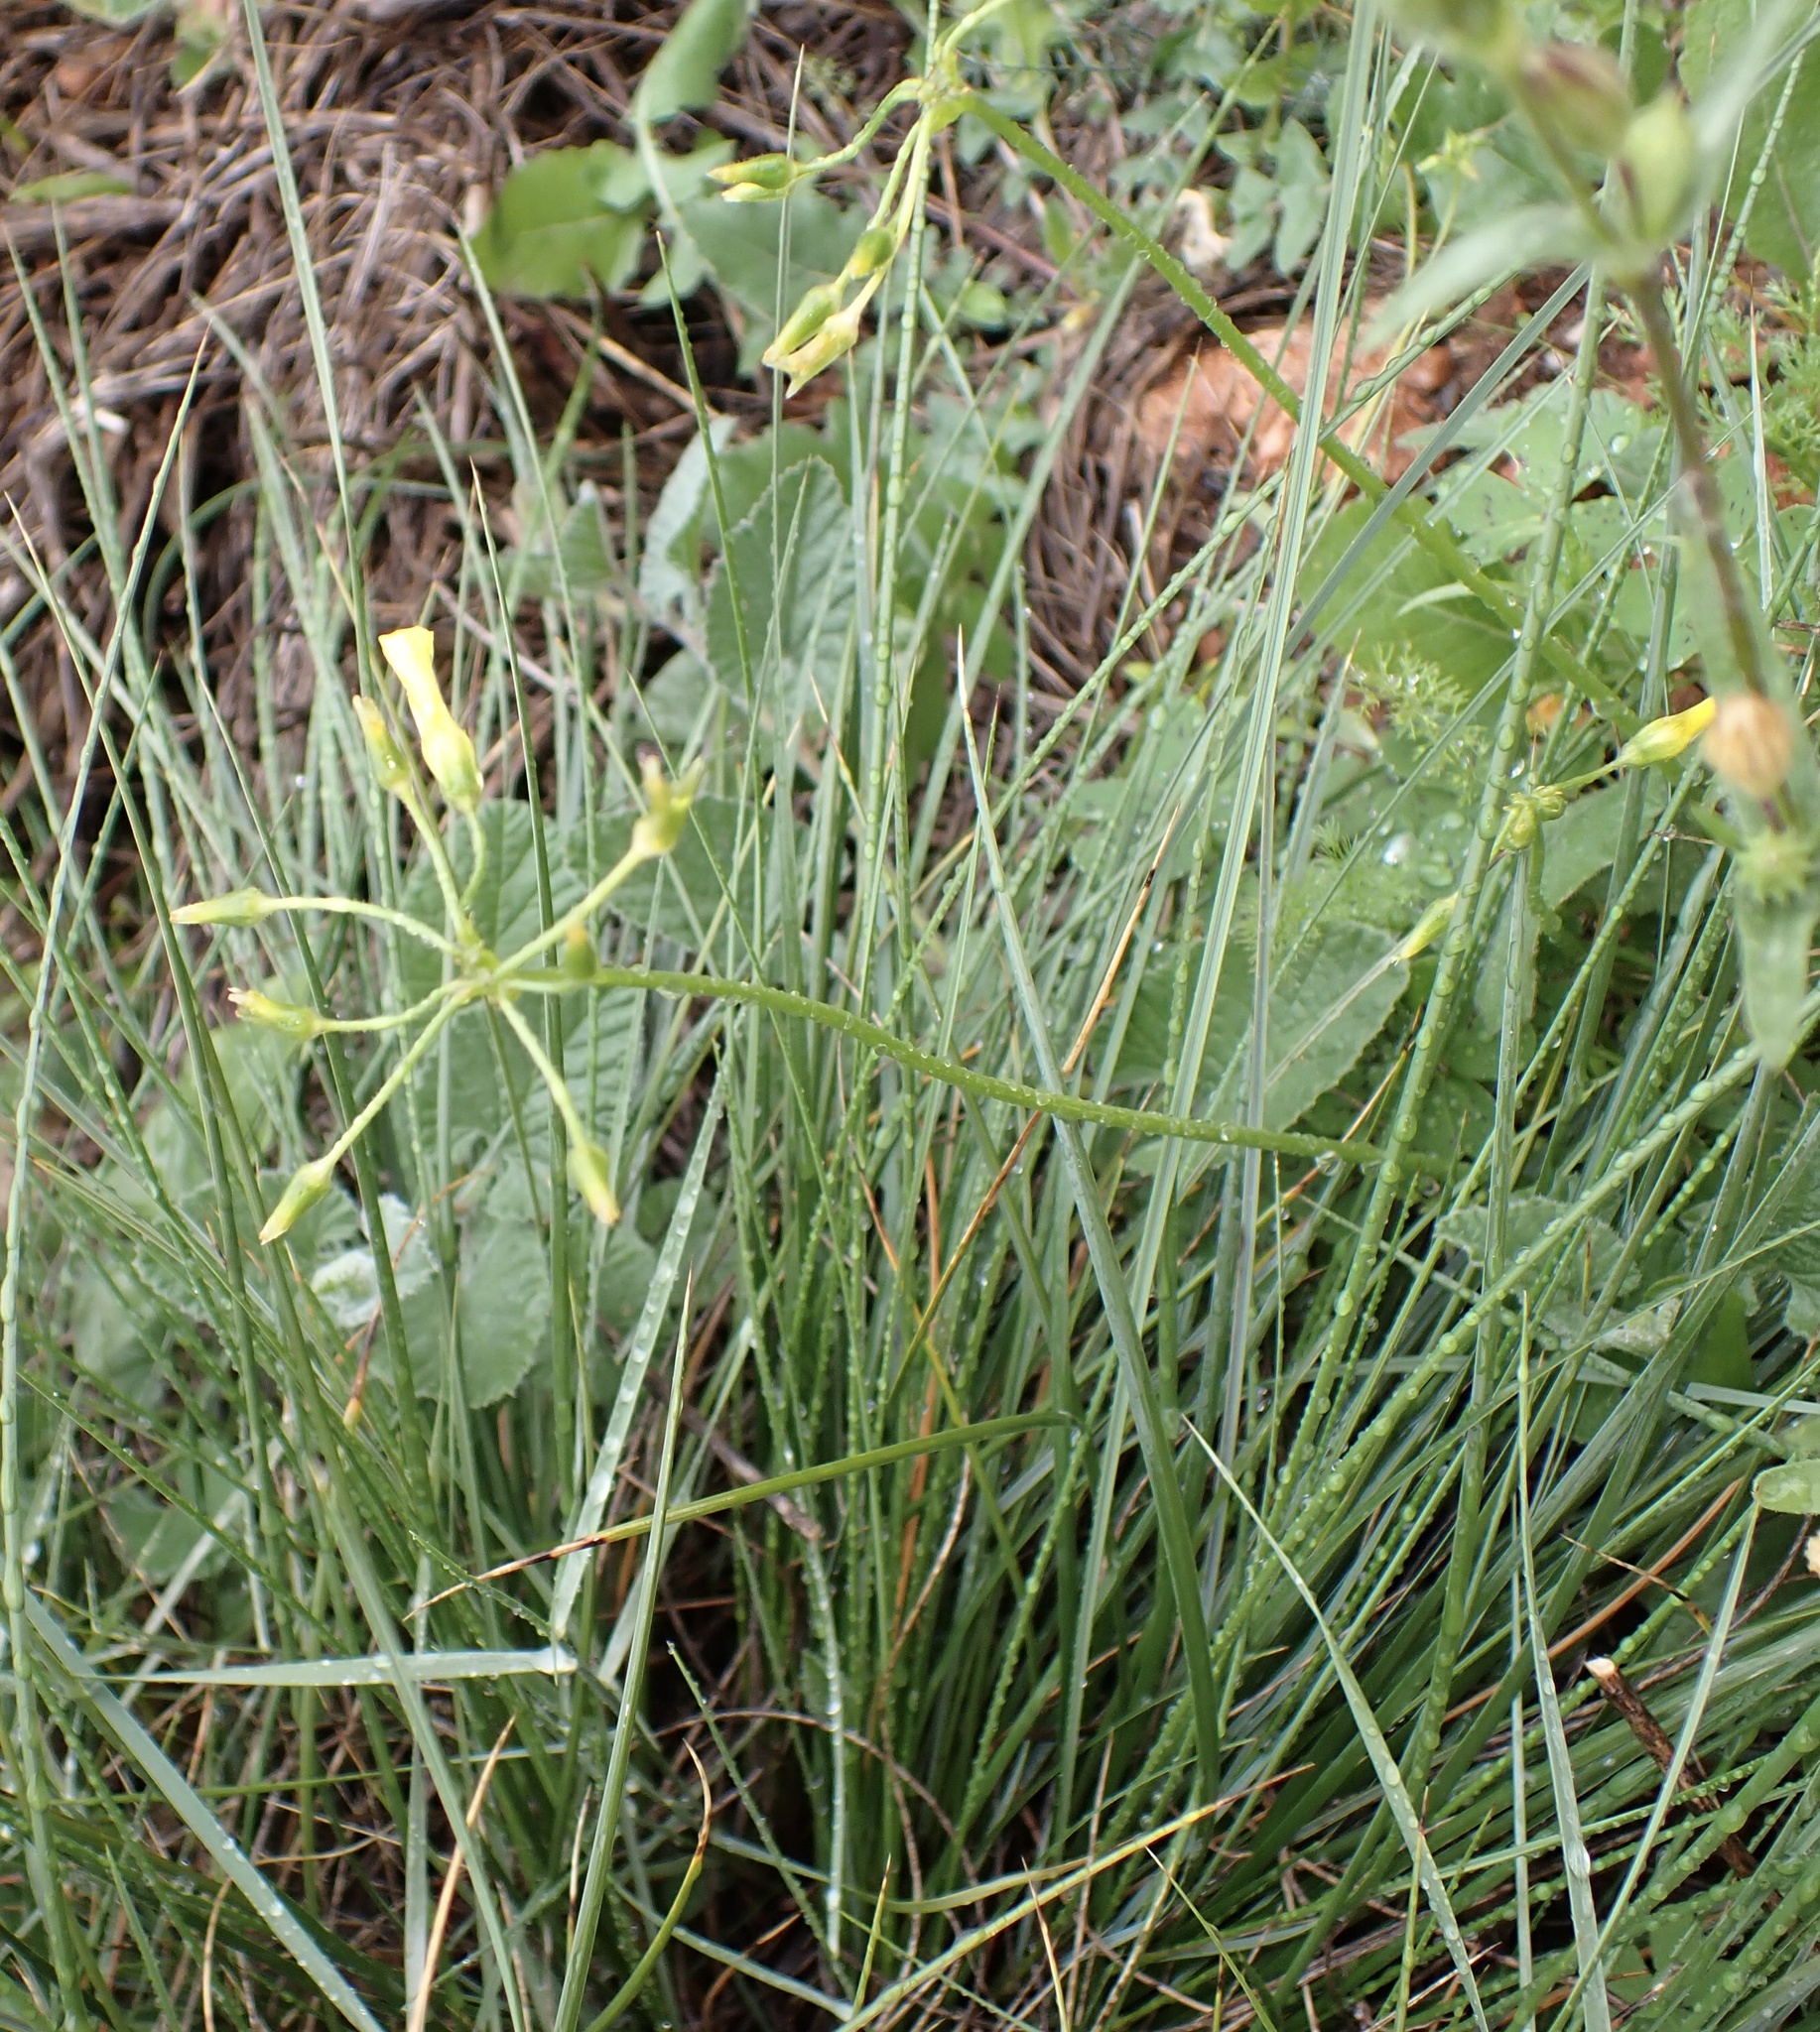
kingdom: Plantae
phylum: Tracheophyta
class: Magnoliopsida
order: Oxalidales
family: Oxalidaceae
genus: Oxalis
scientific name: Oxalis pes-caprae
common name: Bermuda-buttercup
